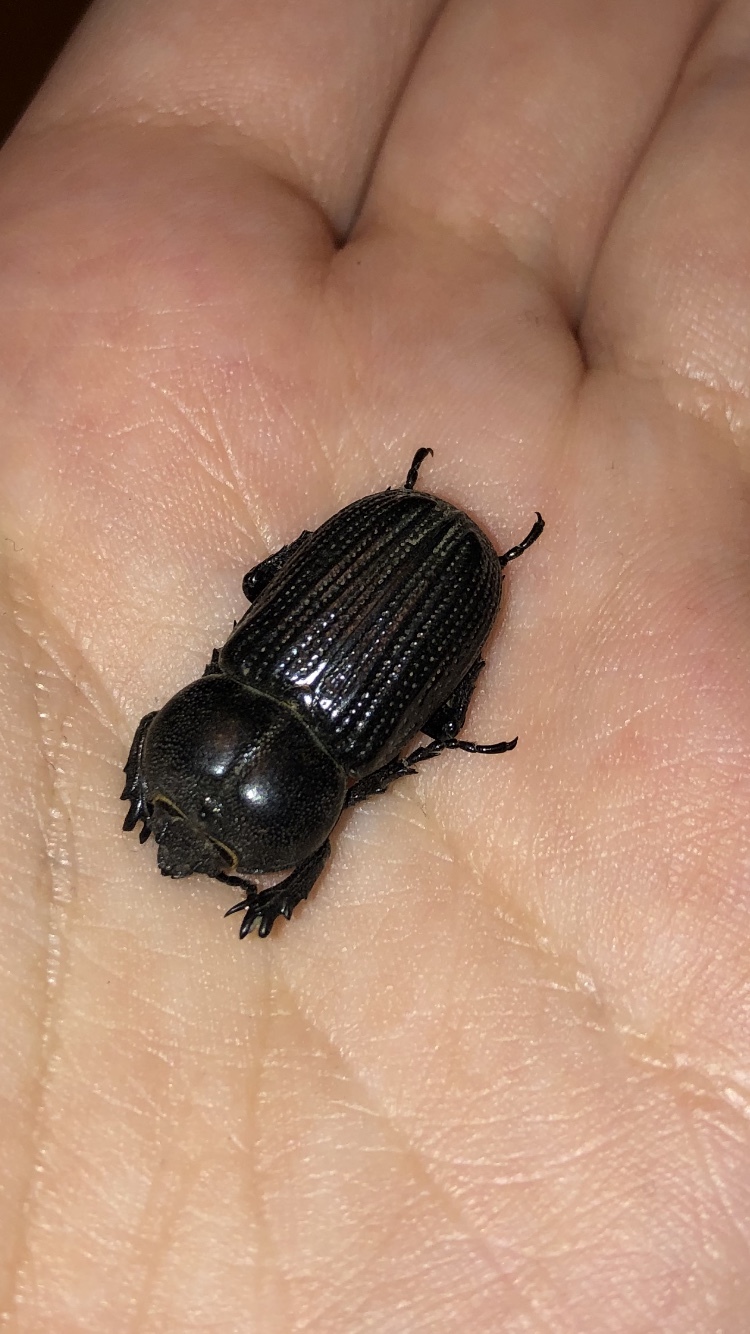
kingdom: Animalia
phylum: Arthropoda
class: Insecta
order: Coleoptera
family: Scarabaeidae
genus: Phileurus
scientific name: Phileurus valgus
